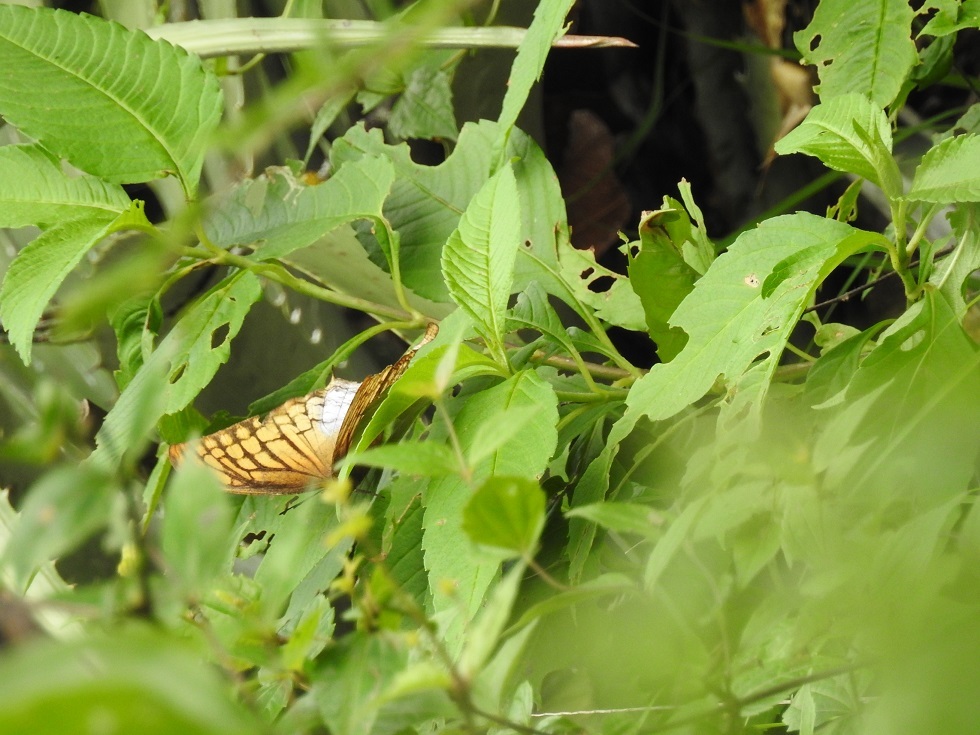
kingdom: Animalia
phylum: Arthropoda
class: Insecta
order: Lepidoptera
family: Nymphalidae
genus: Consul
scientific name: Consul excellens
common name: Black-veined leafwing
